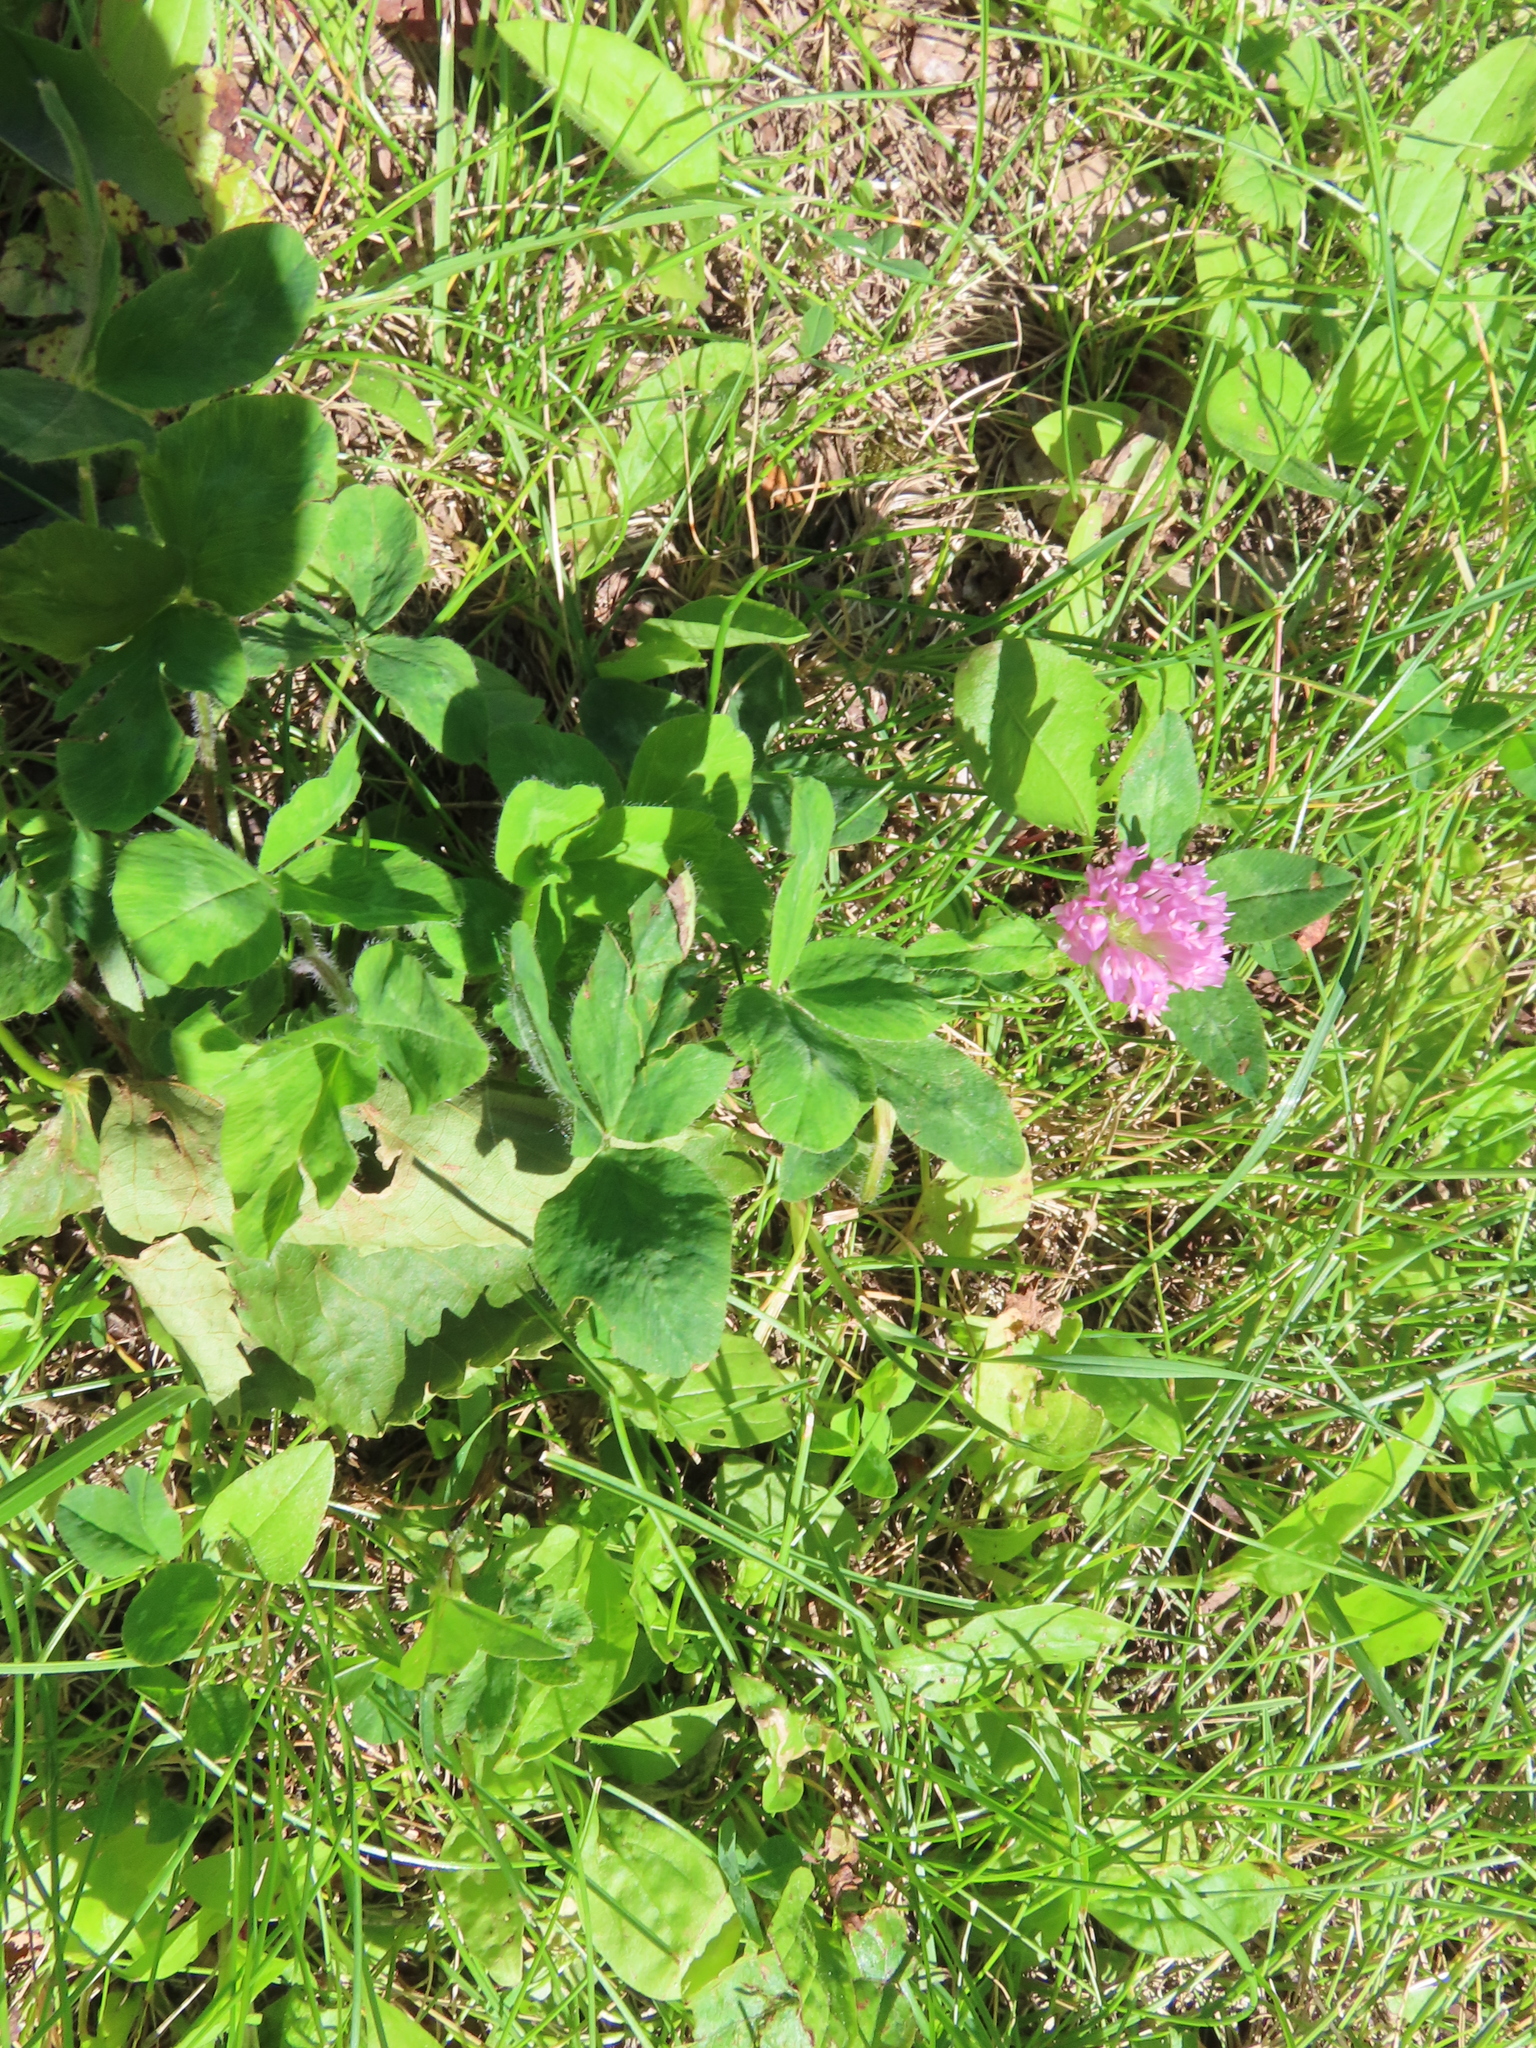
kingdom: Plantae
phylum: Tracheophyta
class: Magnoliopsida
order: Fabales
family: Fabaceae
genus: Trifolium
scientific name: Trifolium pratense
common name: Red clover
